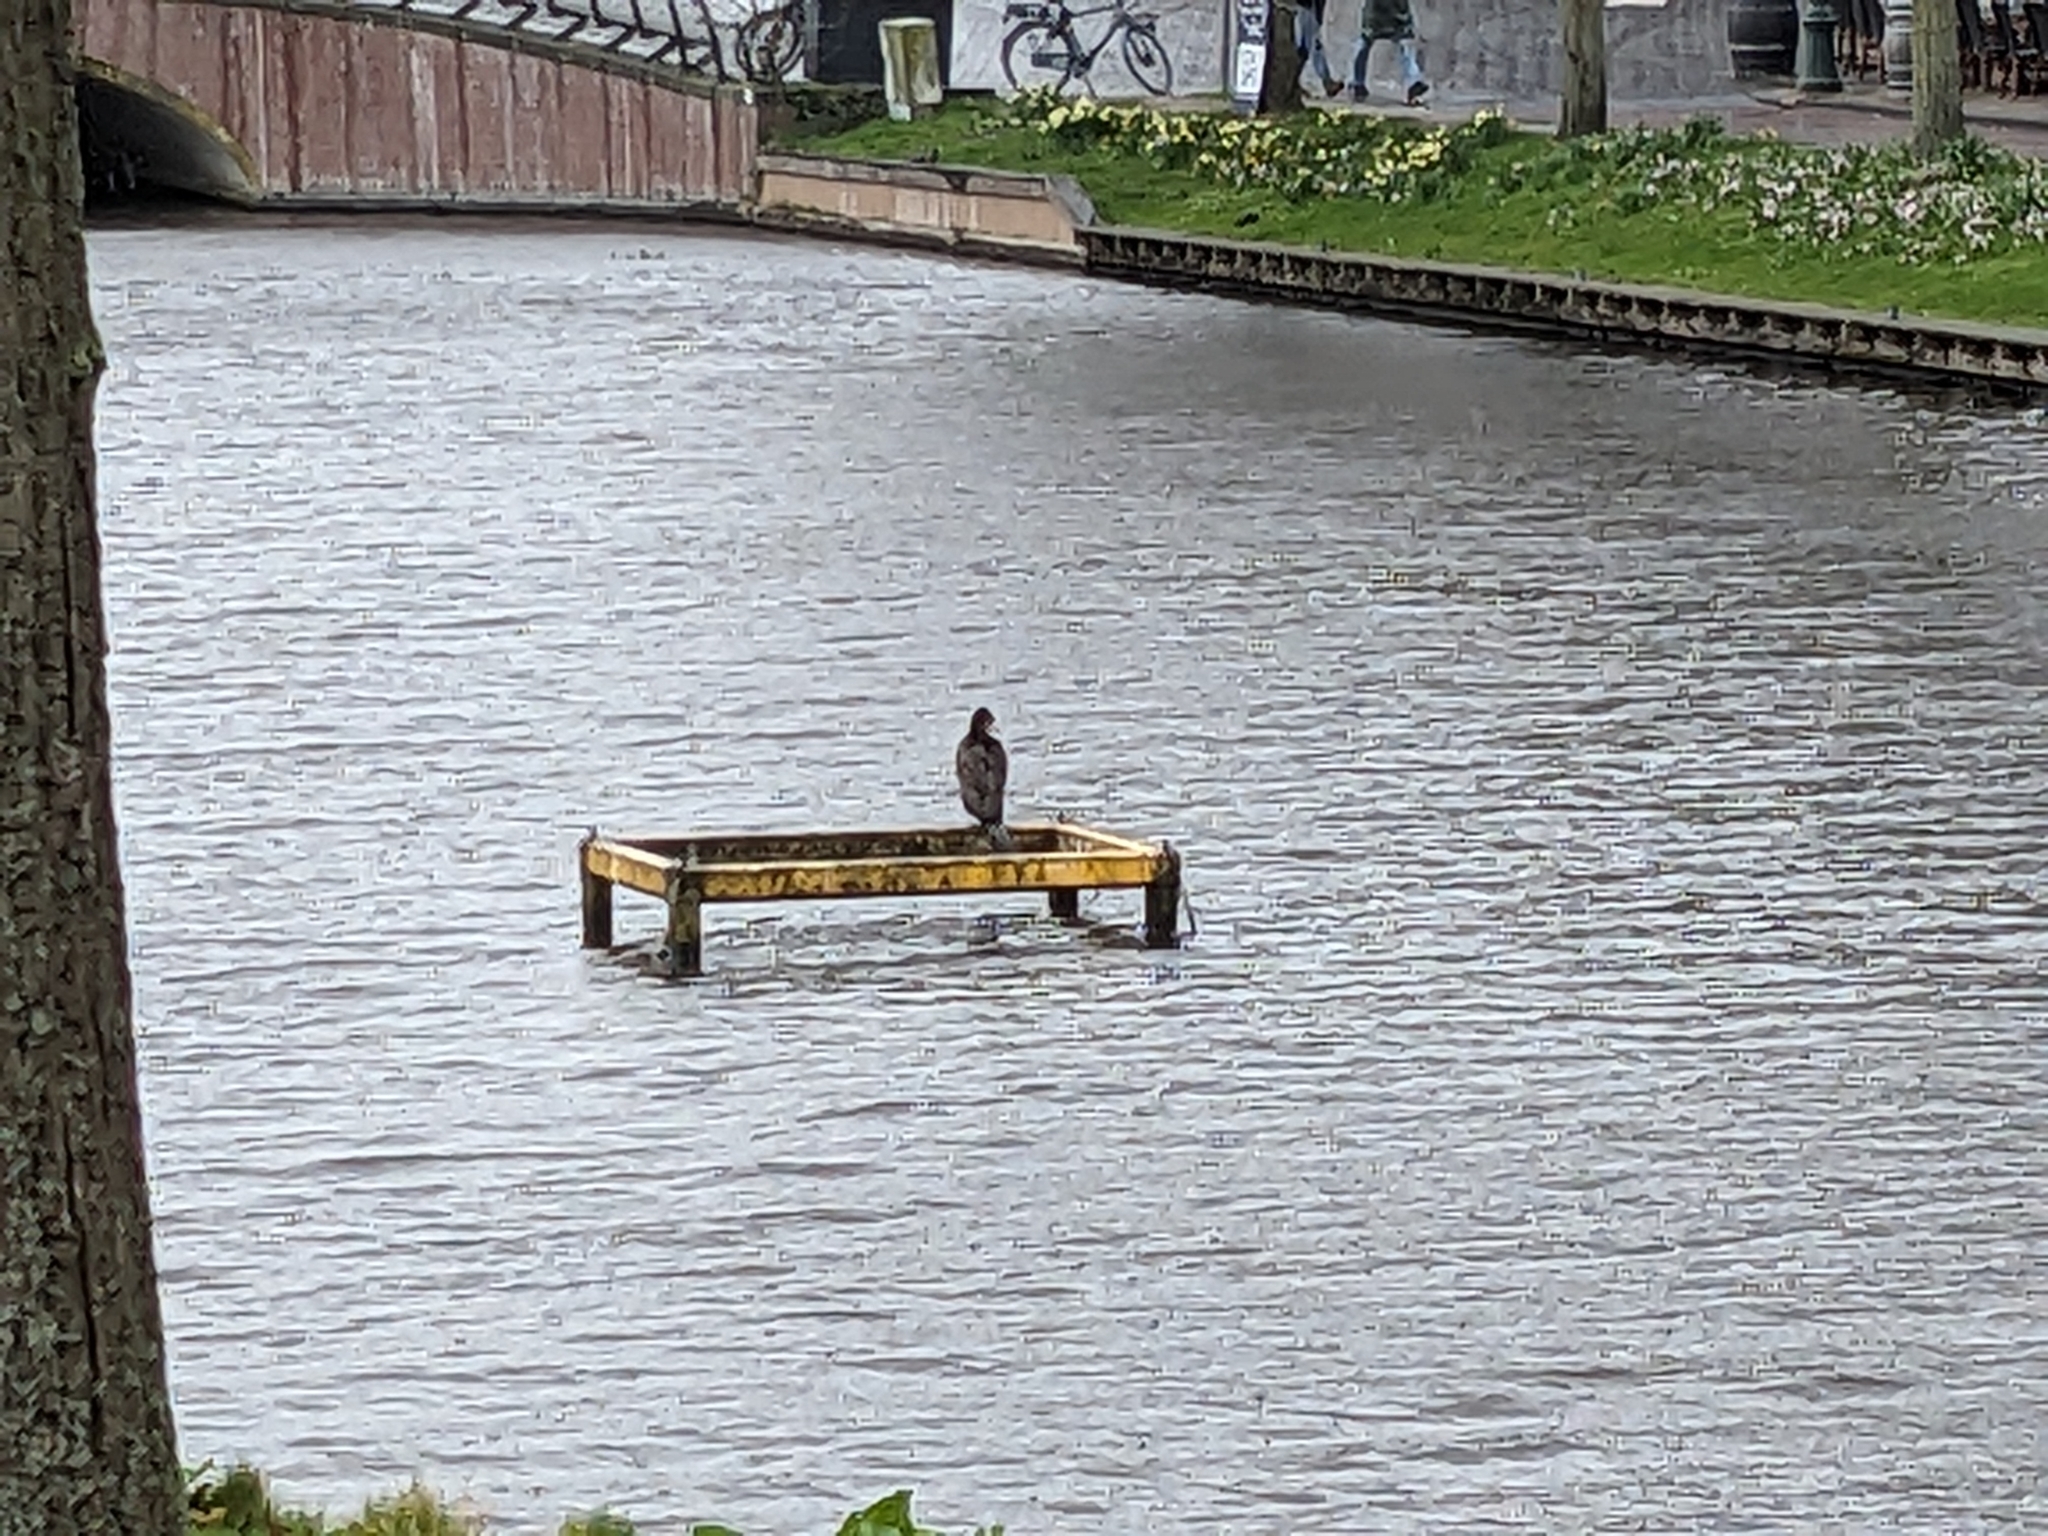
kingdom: Animalia
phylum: Chordata
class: Aves
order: Suliformes
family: Phalacrocoracidae
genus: Phalacrocorax
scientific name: Phalacrocorax carbo
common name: Great cormorant
